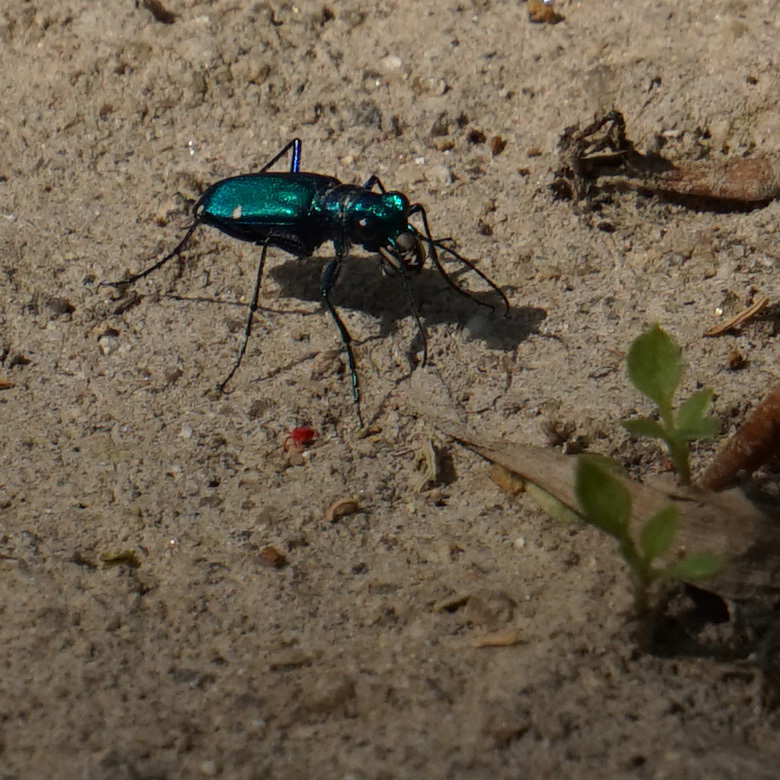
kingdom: Animalia
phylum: Arthropoda
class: Insecta
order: Coleoptera
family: Carabidae
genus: Cicindela
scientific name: Cicindela sexguttata
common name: Six-spotted tiger beetle
